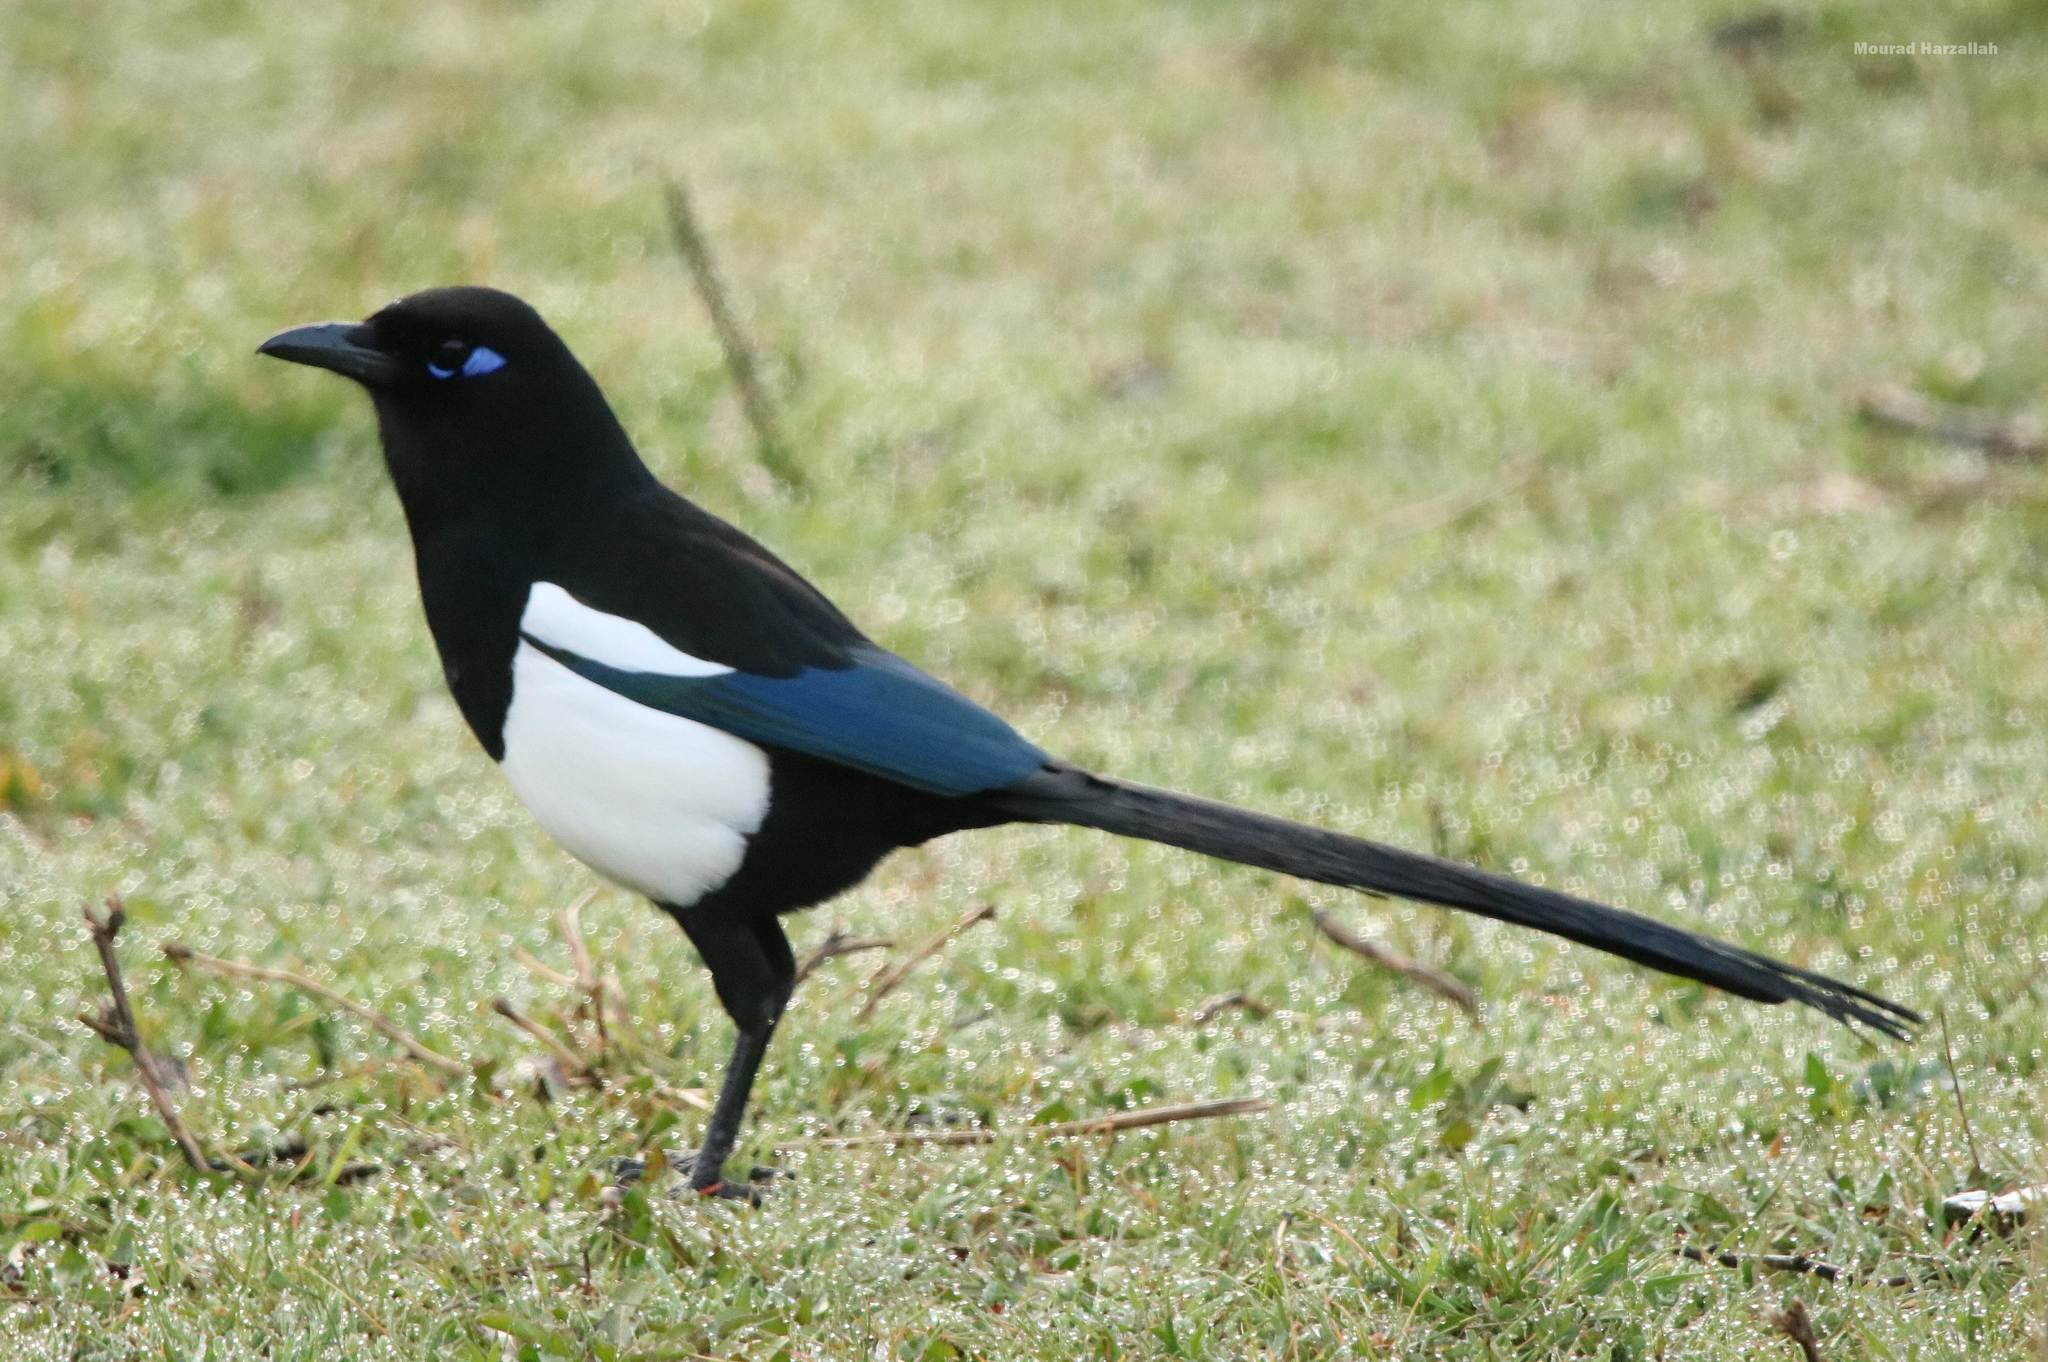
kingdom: Animalia
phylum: Chordata
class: Aves
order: Passeriformes
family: Corvidae
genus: Pica
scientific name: Pica mauritanica
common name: Maghreb magpie
